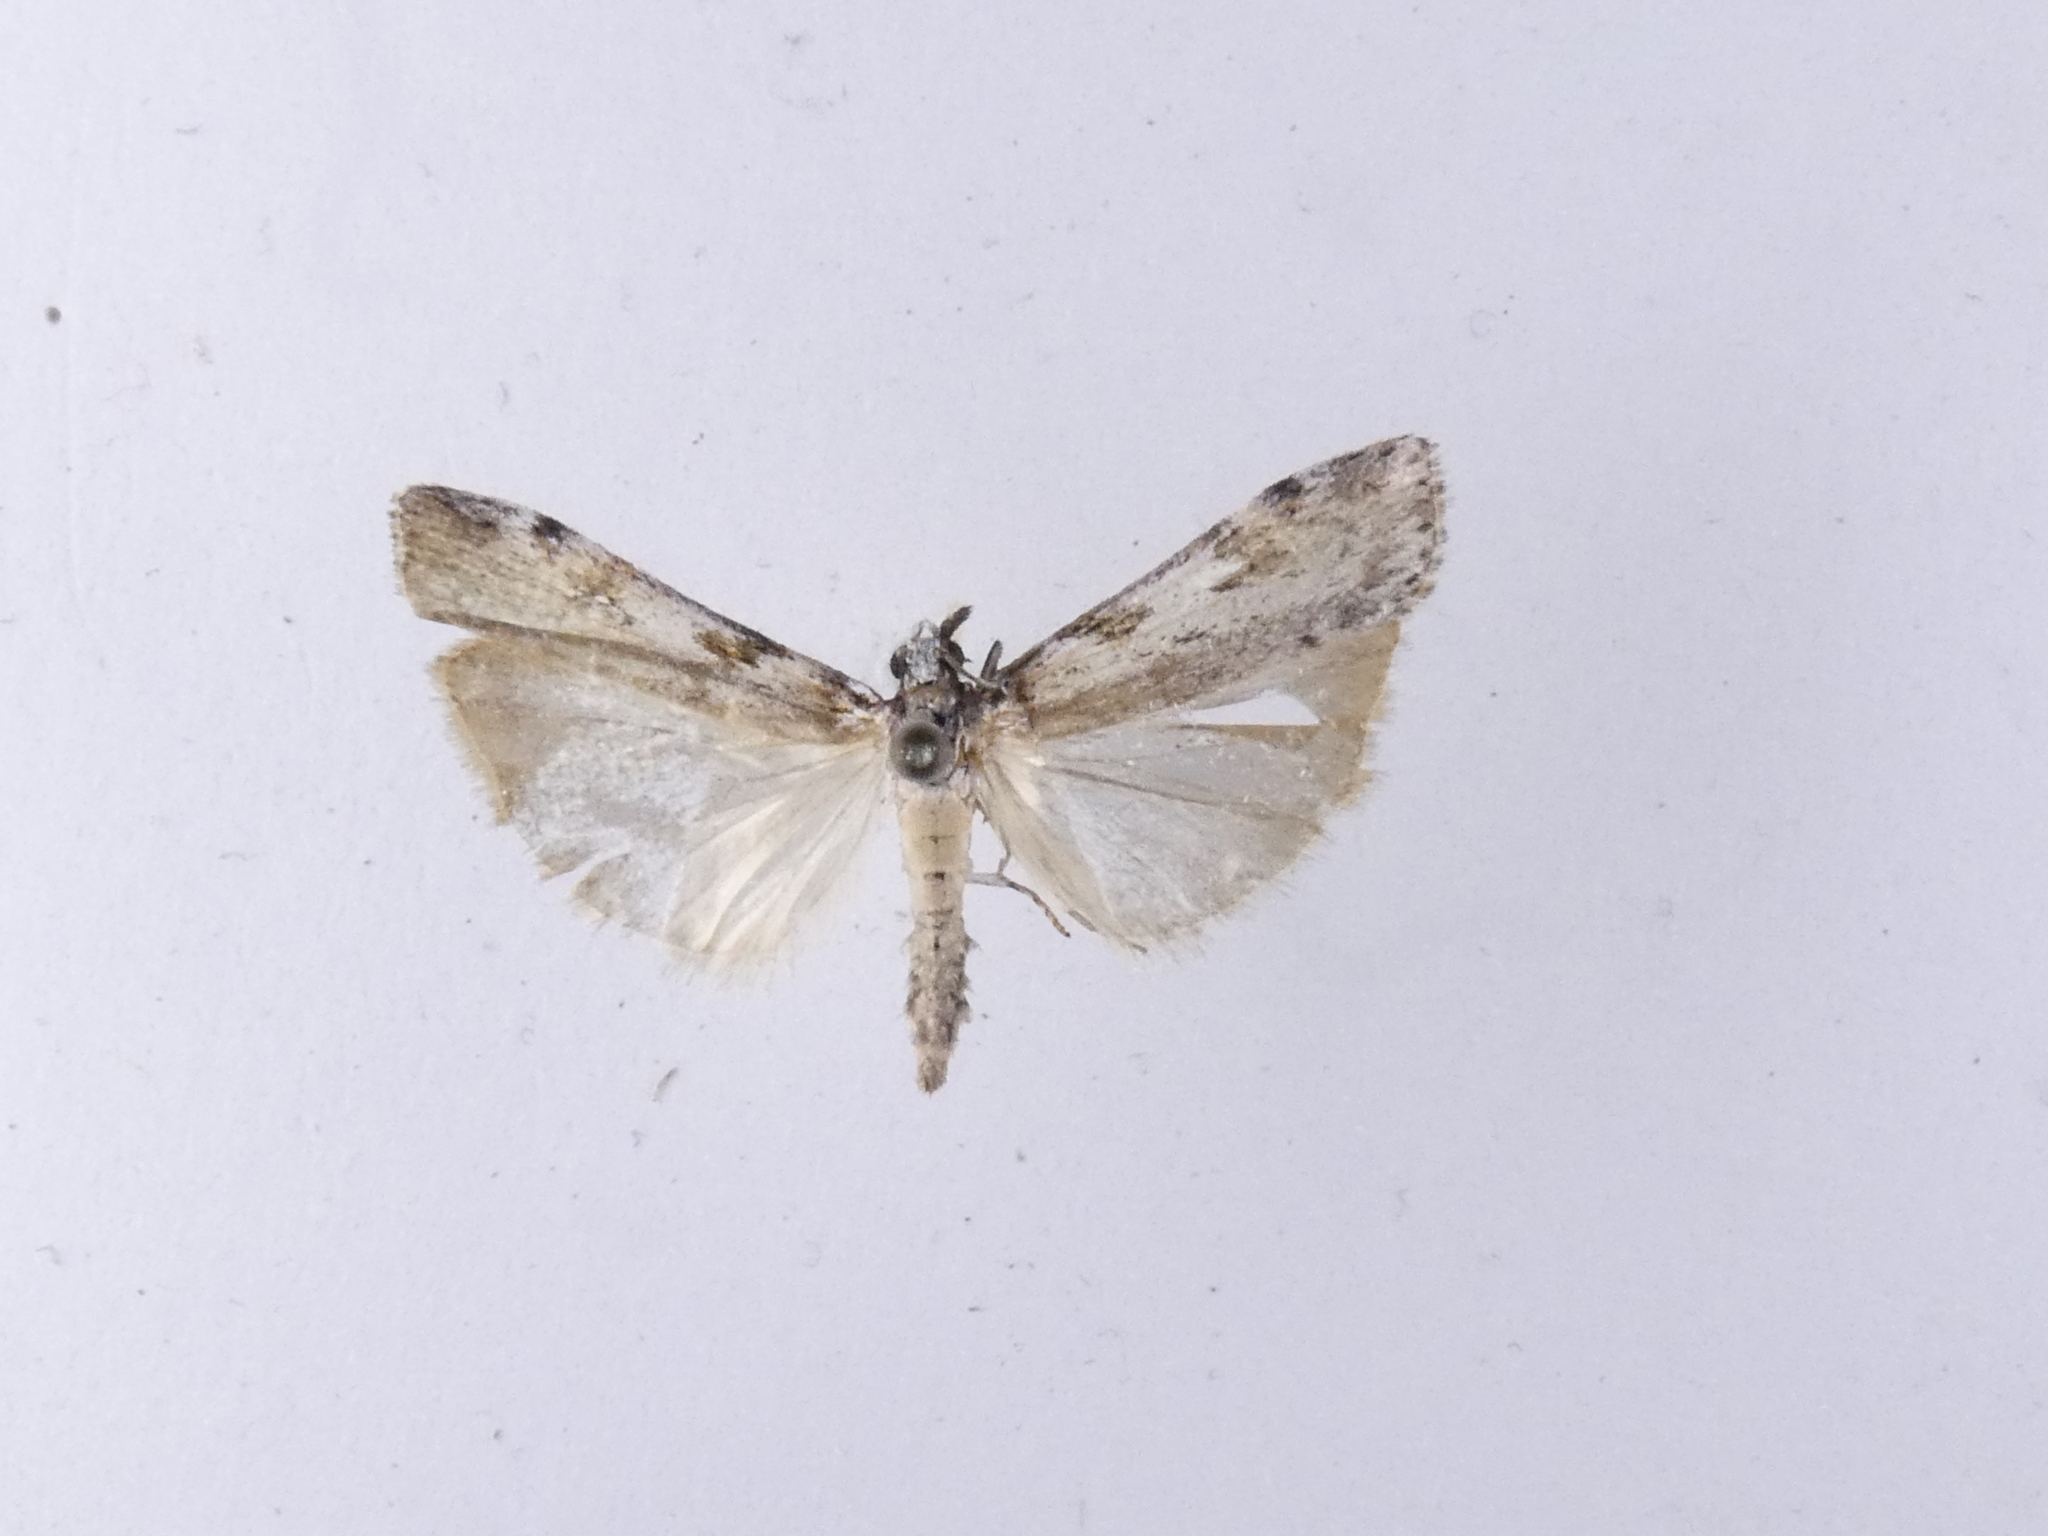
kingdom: Animalia
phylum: Arthropoda
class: Insecta
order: Lepidoptera
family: Crambidae
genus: Scoparia
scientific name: Scoparia halopis
